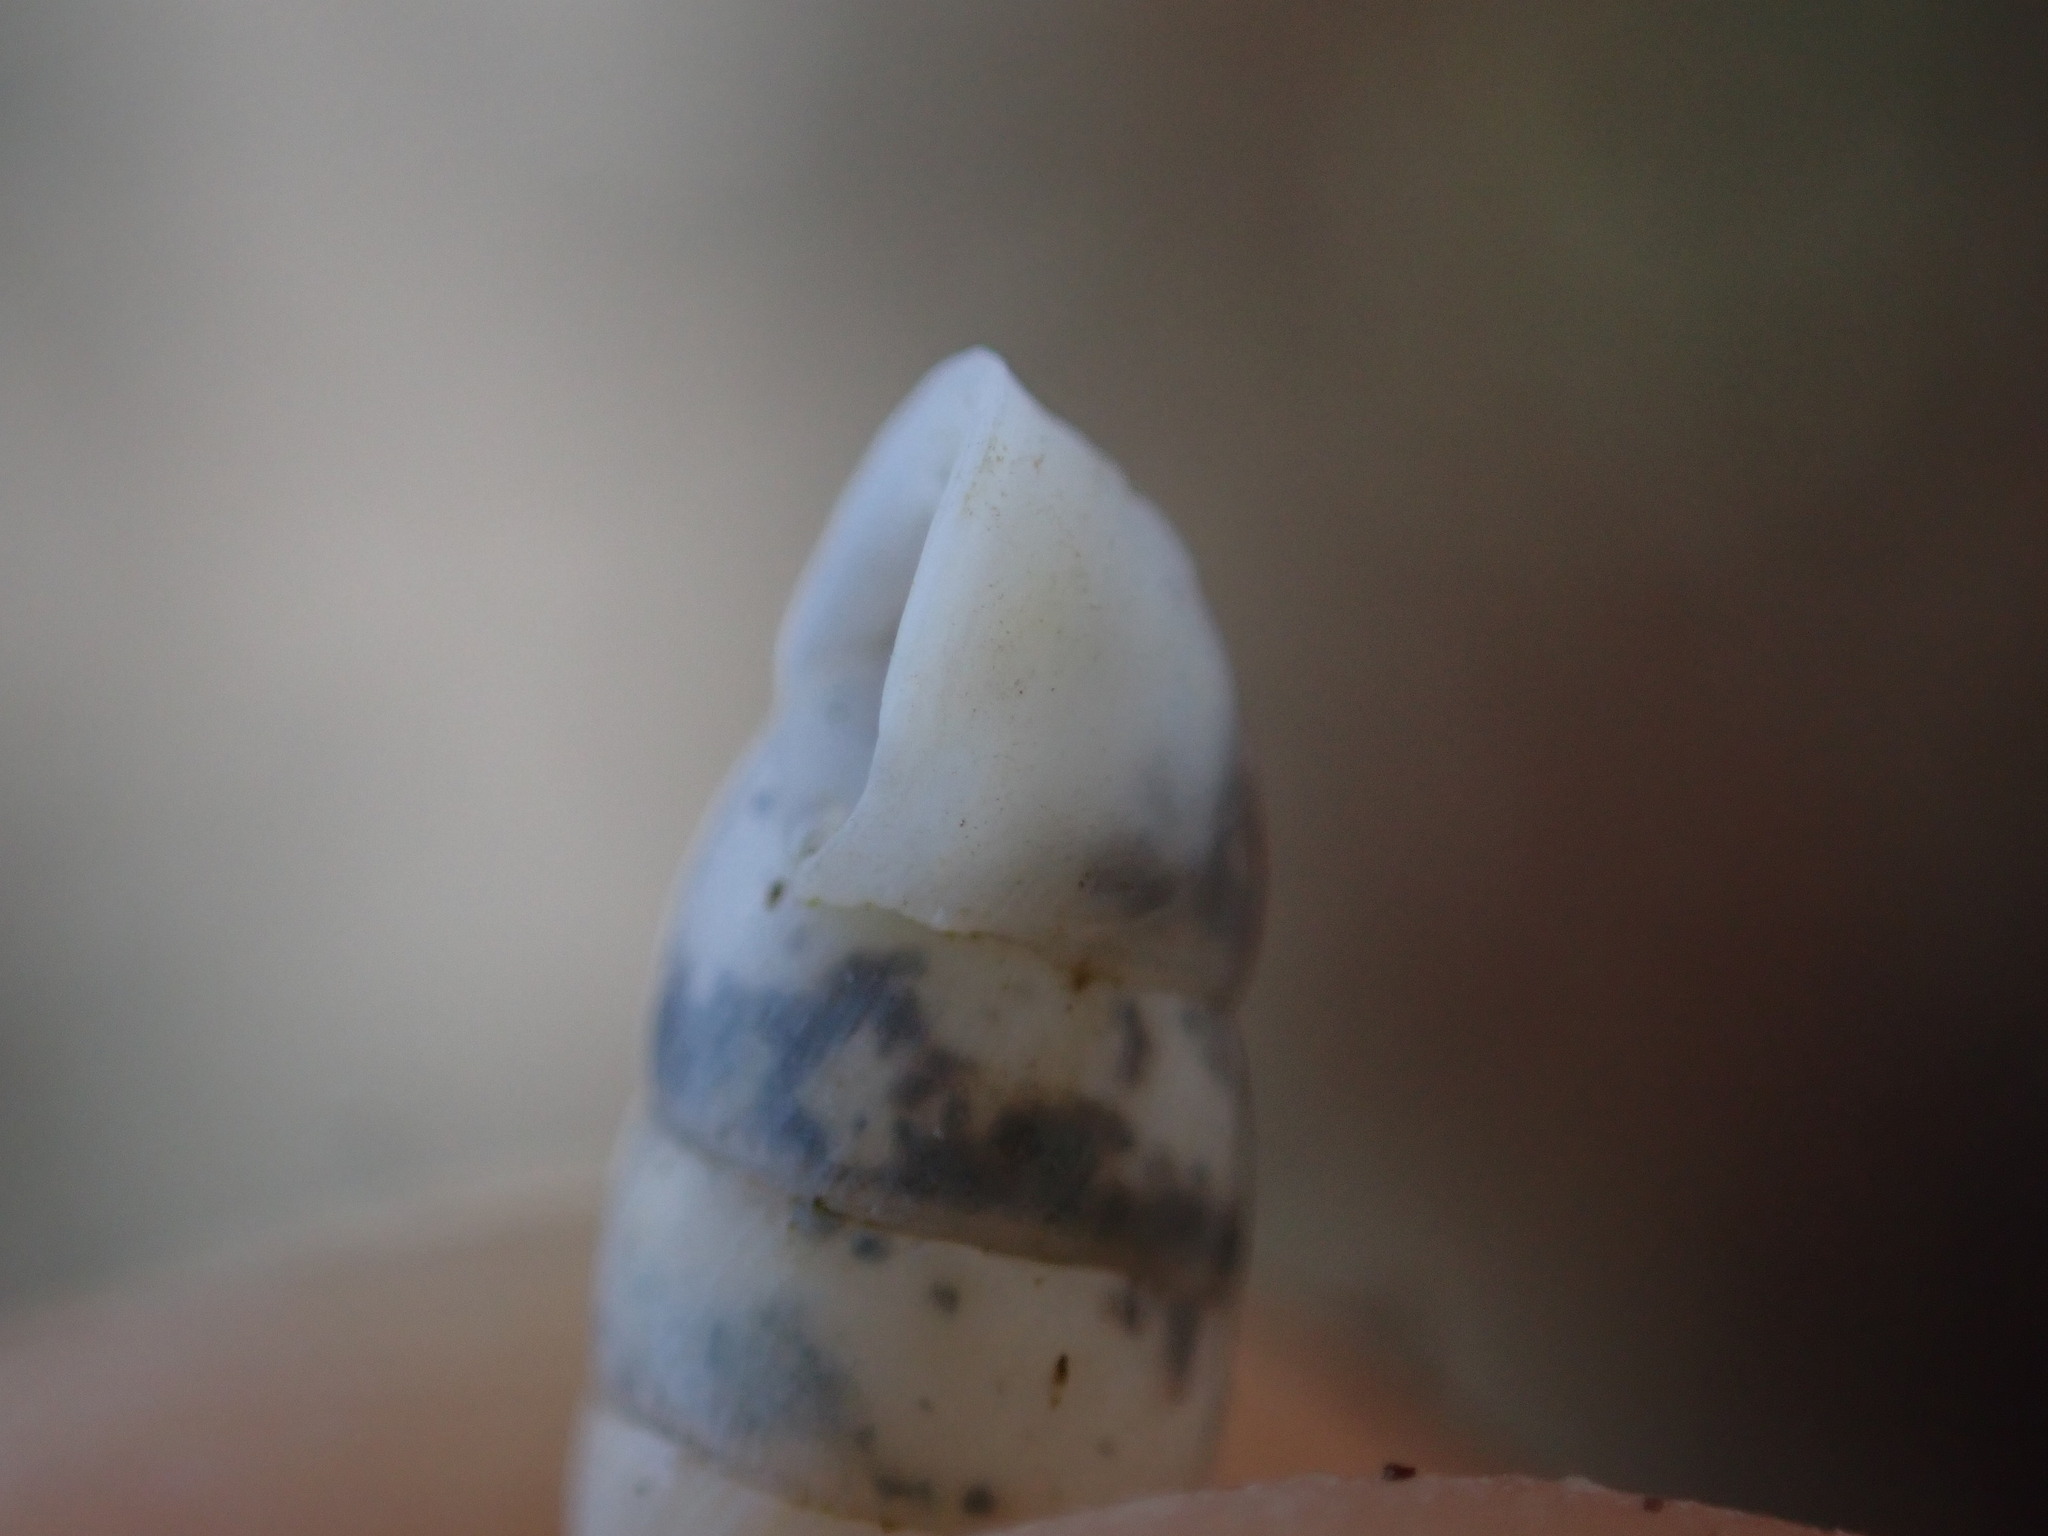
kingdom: Animalia
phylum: Mollusca
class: Gastropoda
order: Stylommatophora
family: Enidae
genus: Jaminia
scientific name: Jaminia quadridens
